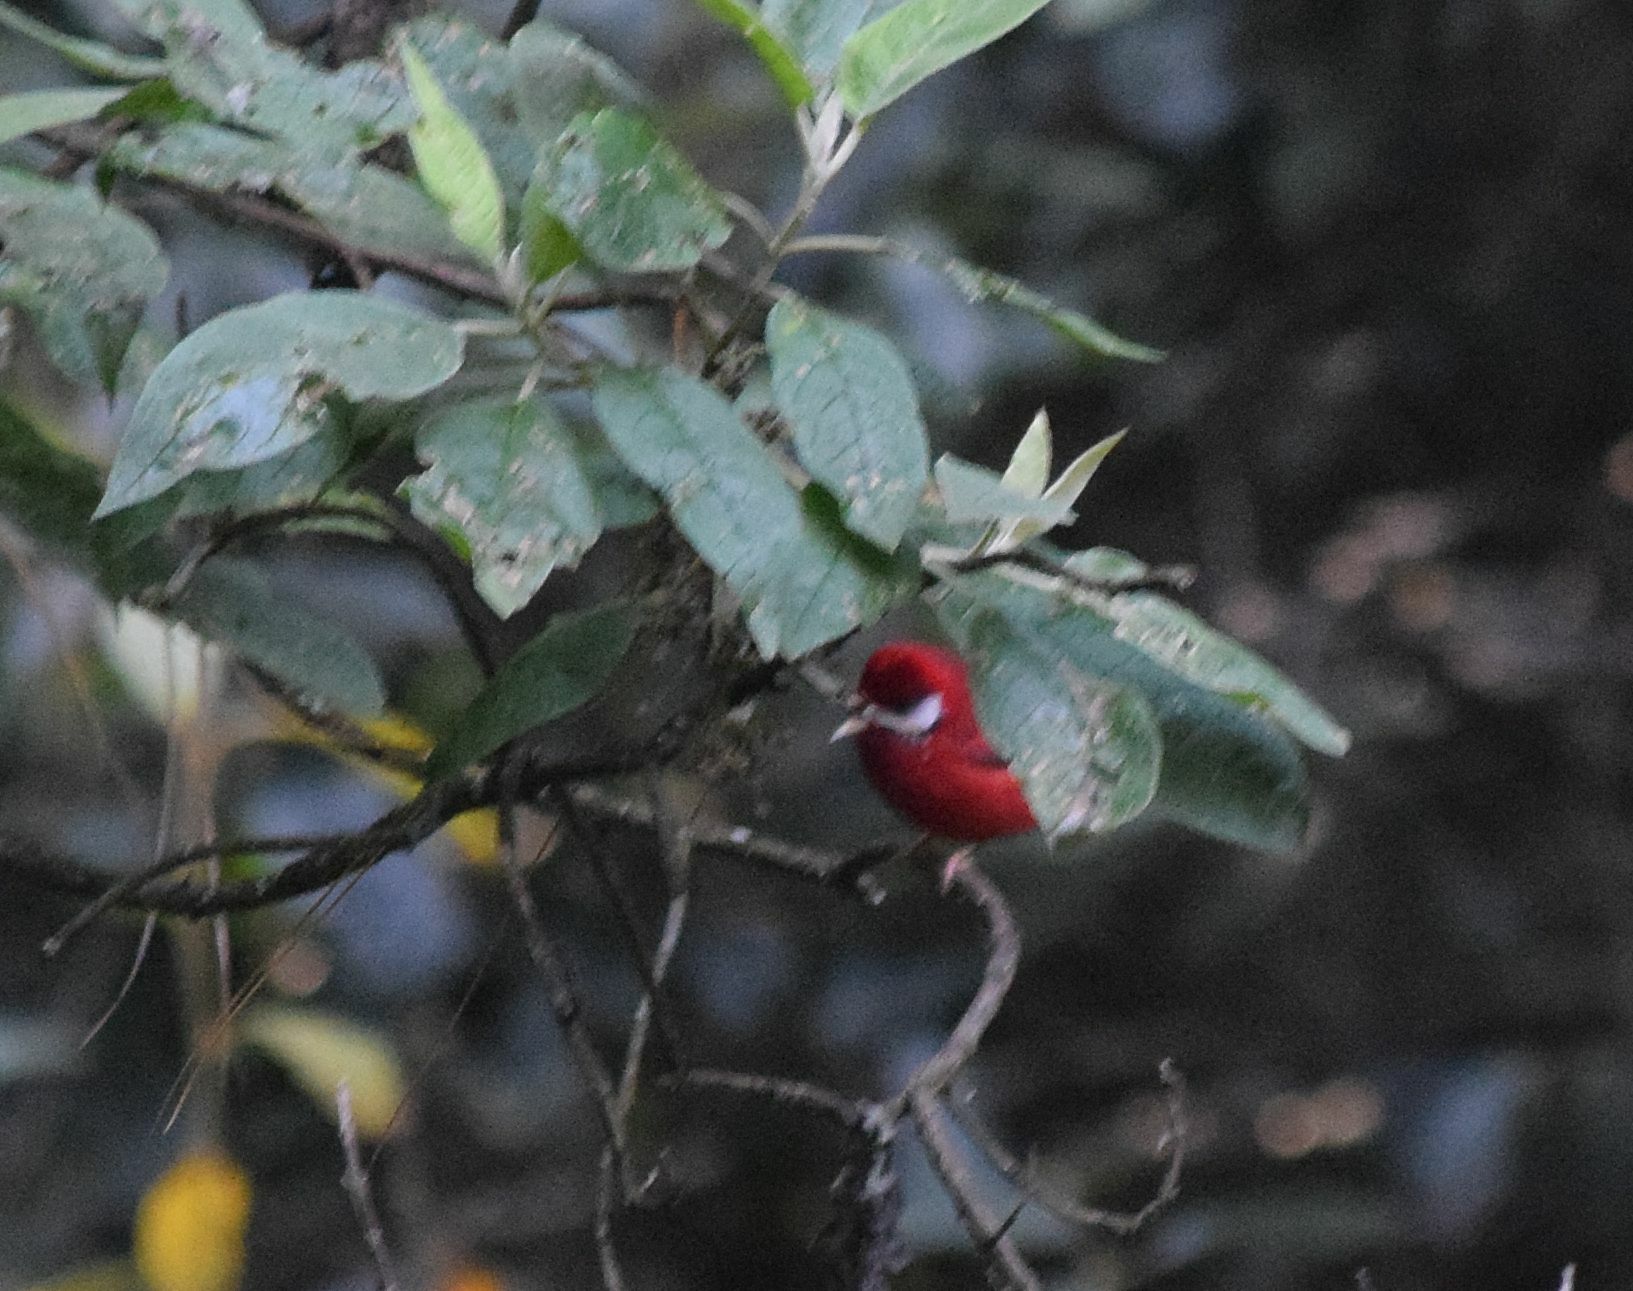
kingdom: Animalia
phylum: Chordata
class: Aves
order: Passeriformes
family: Parulidae
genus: Cardellina
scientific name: Cardellina rubra
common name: Red warbler
